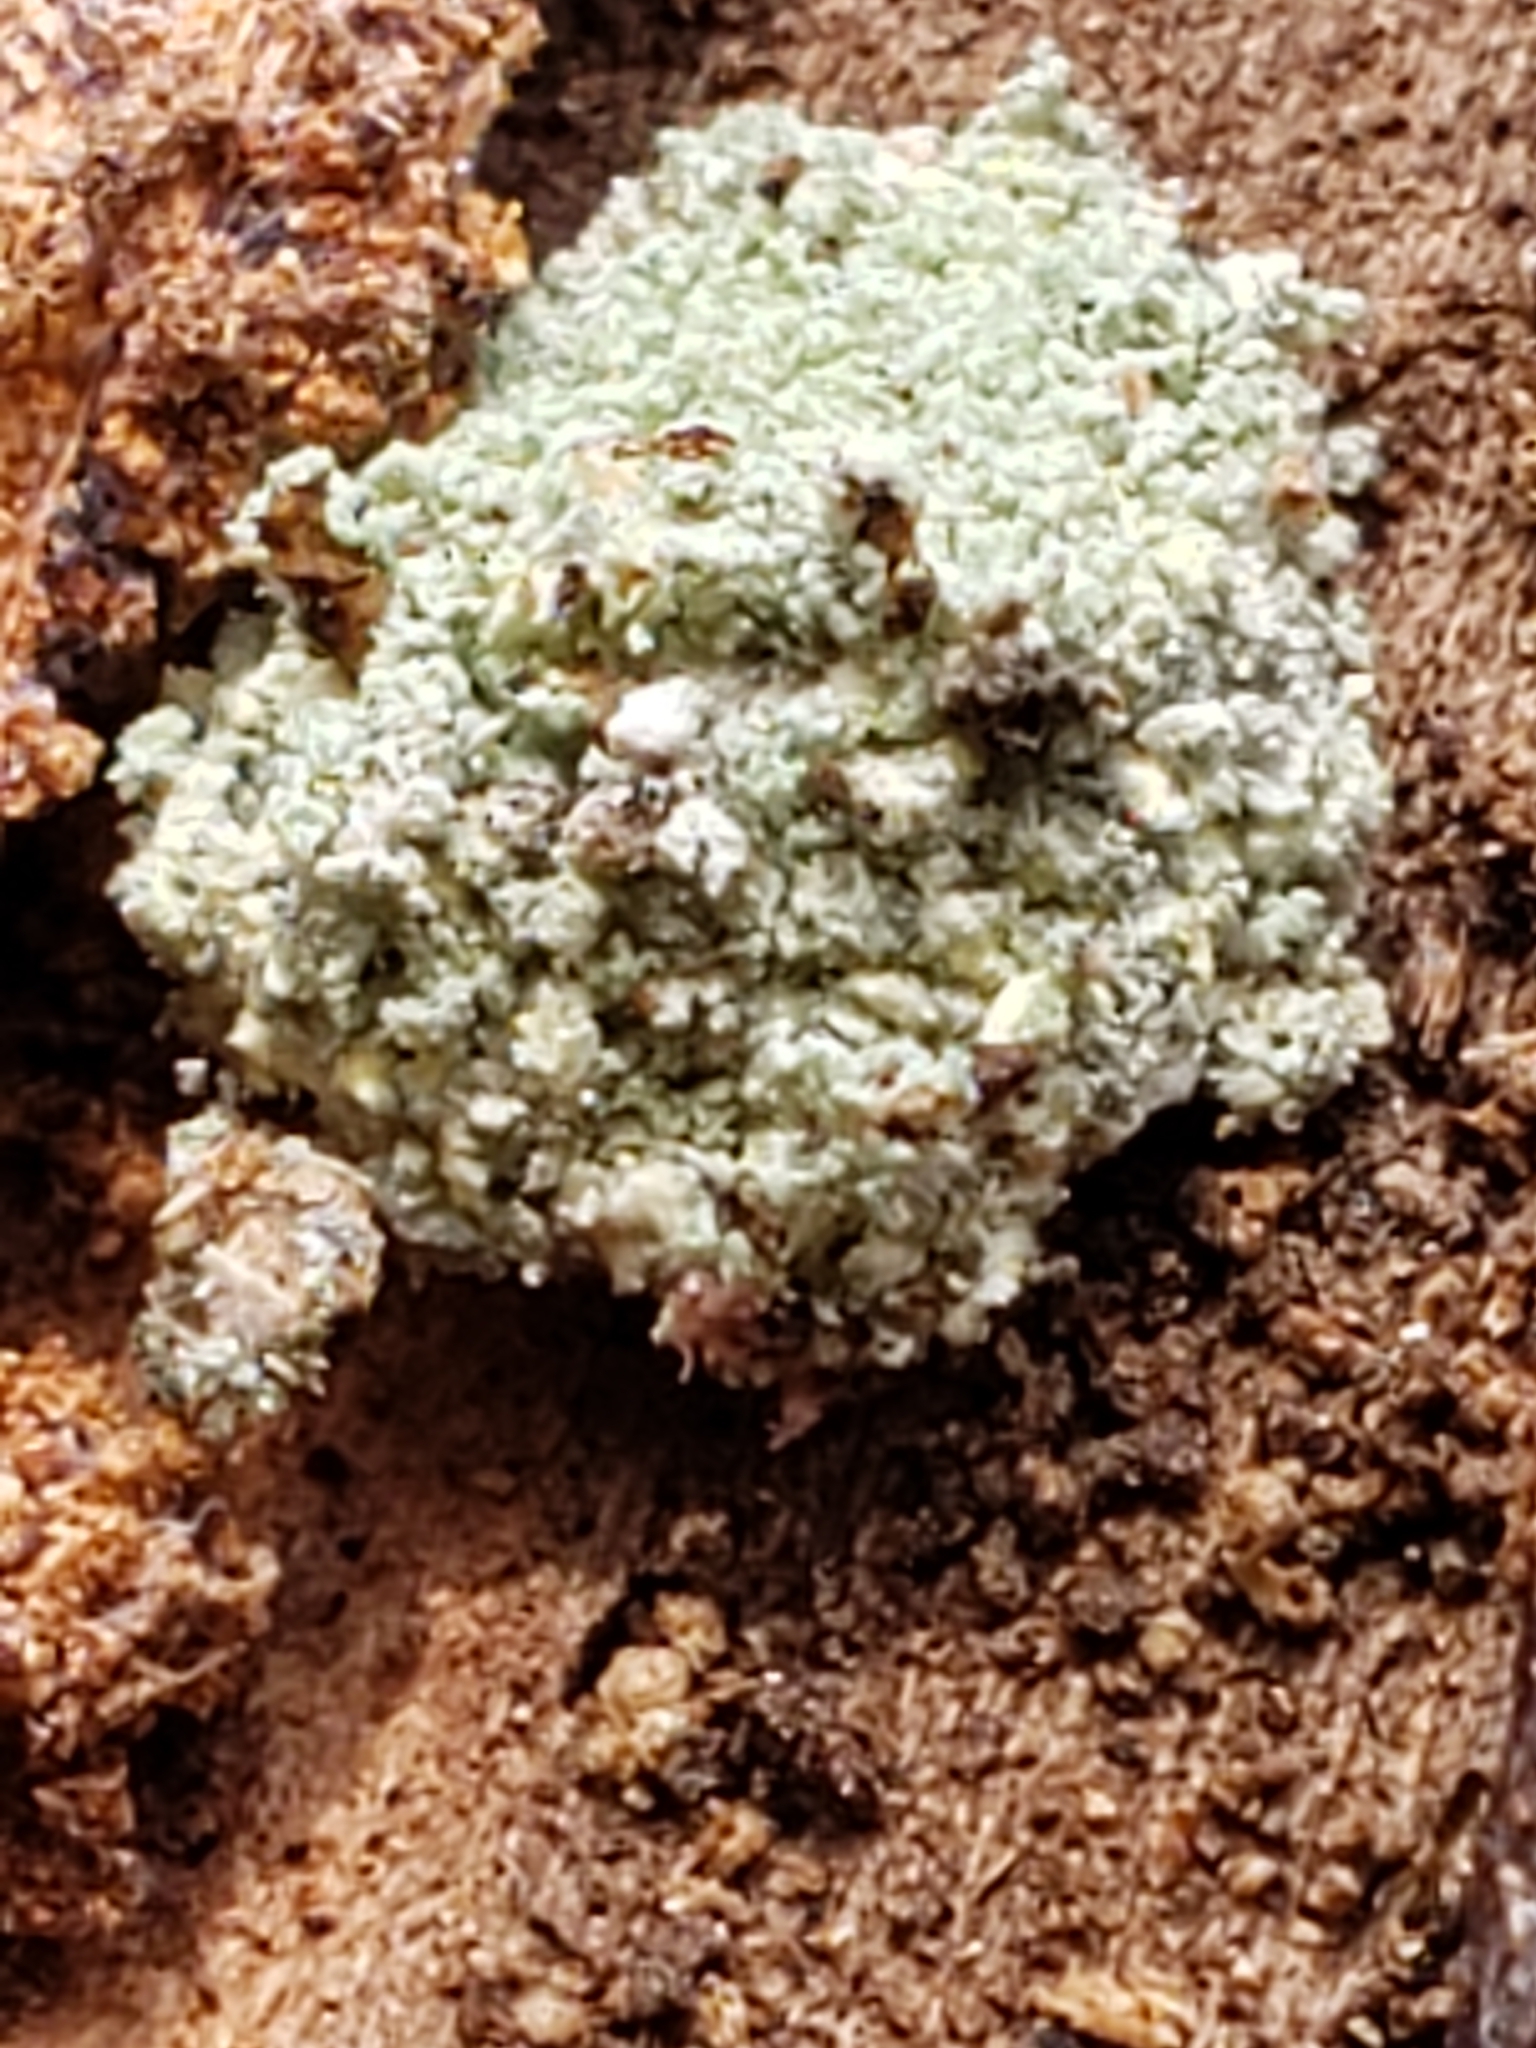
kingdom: Animalia
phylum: Arthropoda
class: Insecta
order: Neuroptera
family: Chrysopidae
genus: Leucochrysa
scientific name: Leucochrysa pavida
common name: Lichen-carrying green lacewing
